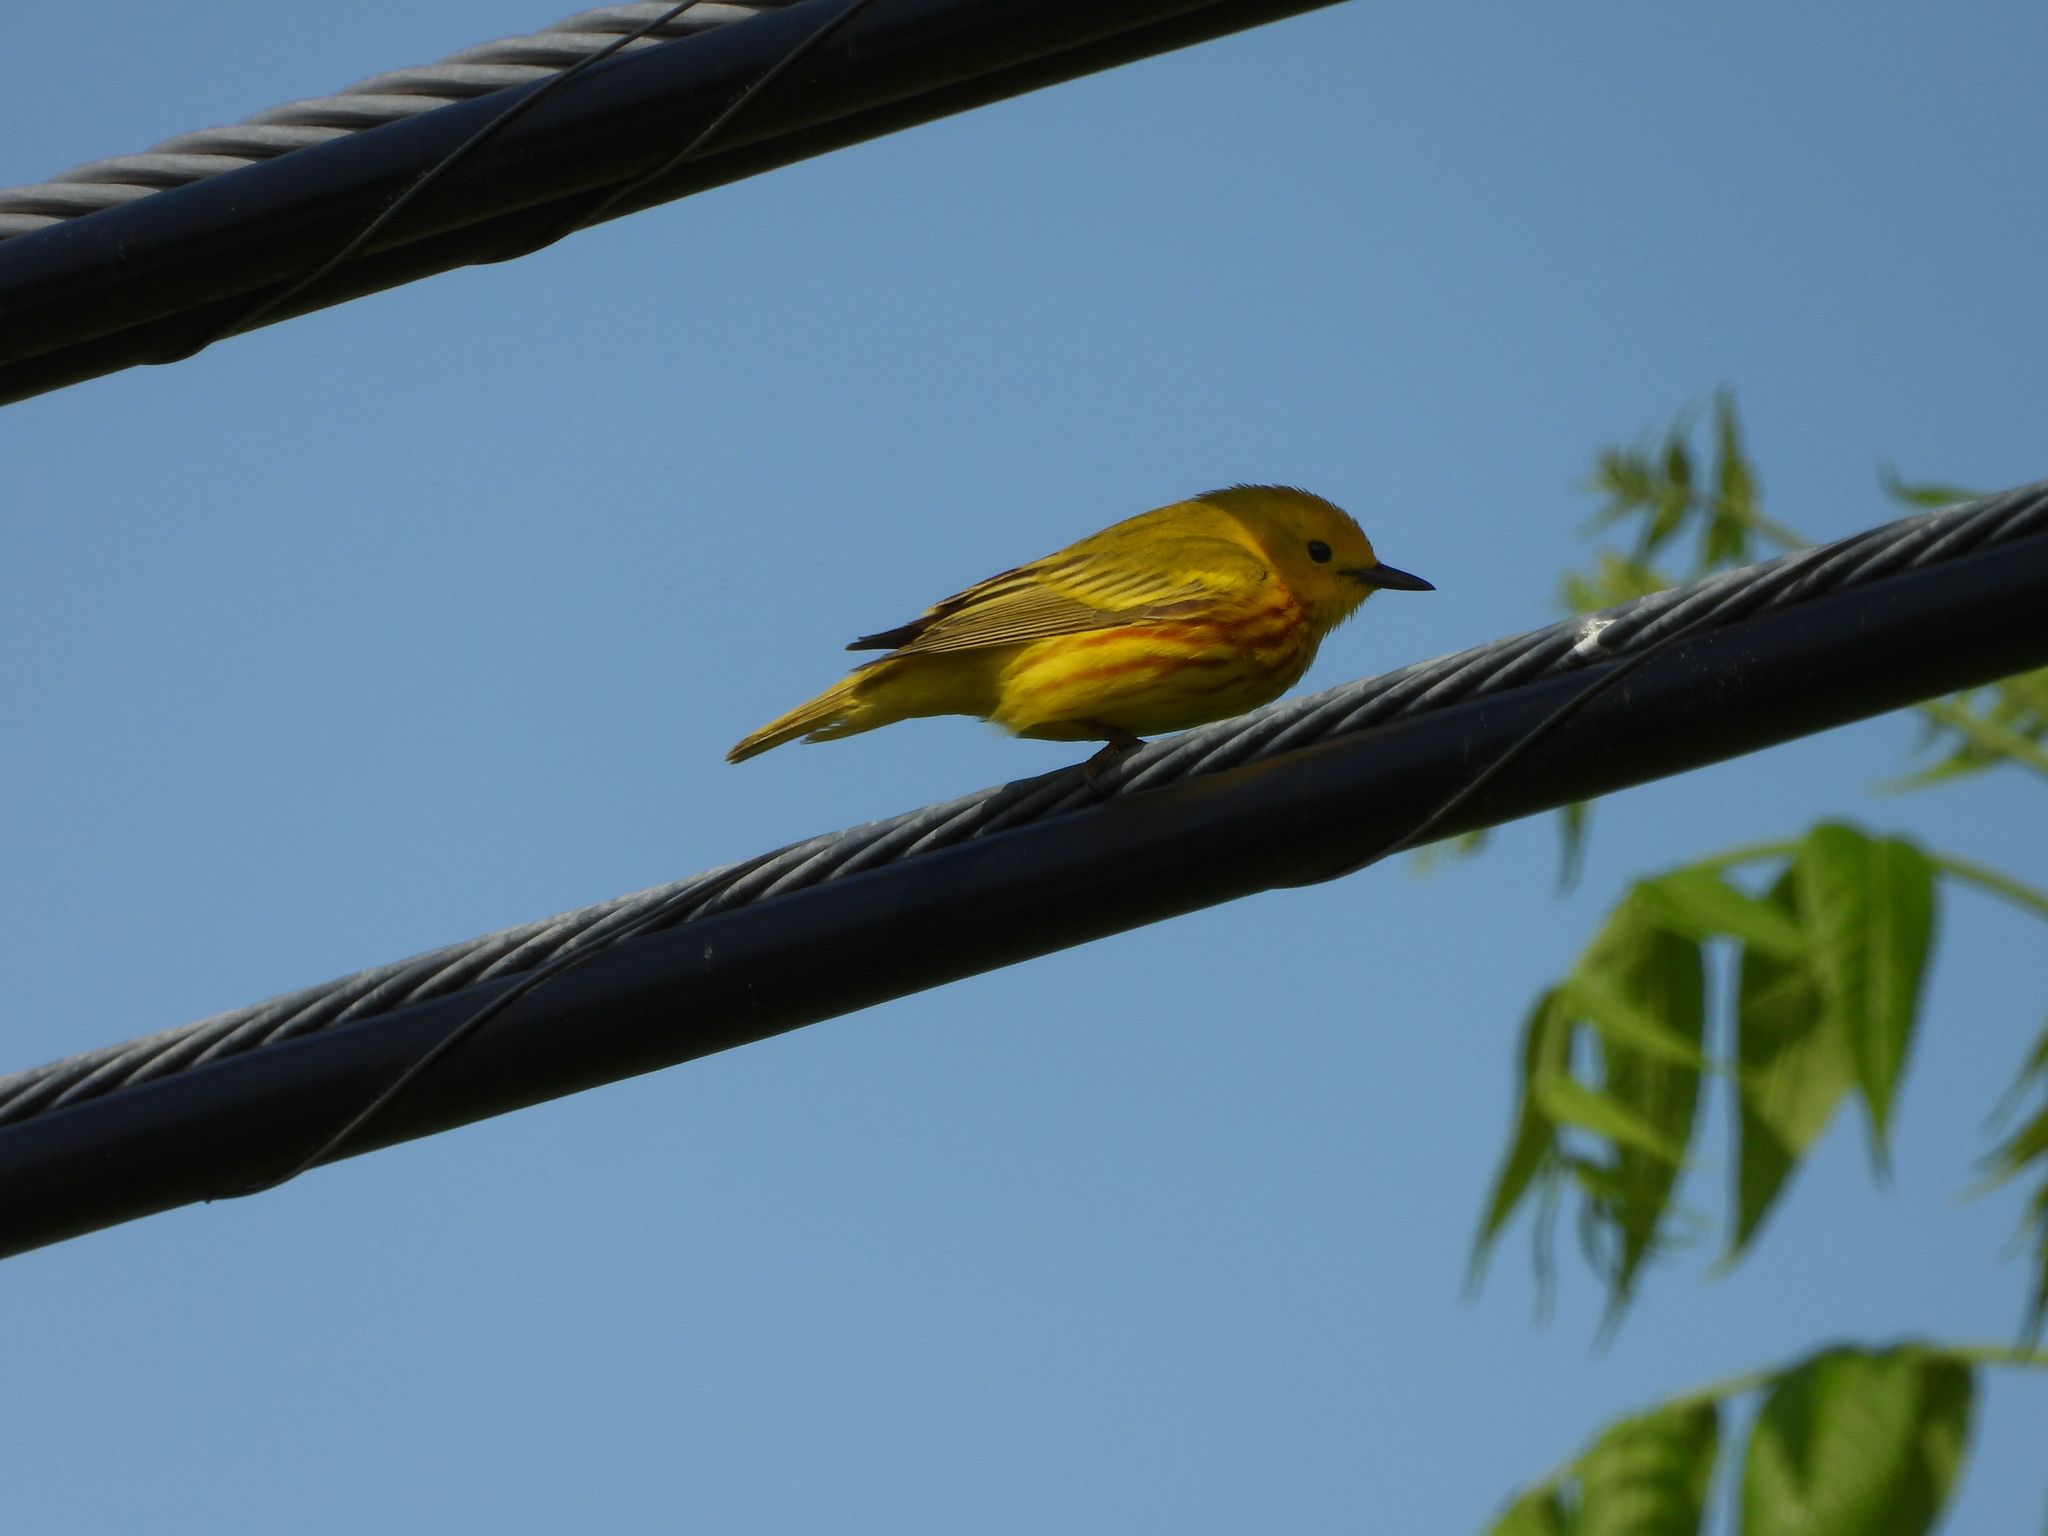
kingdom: Animalia
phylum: Chordata
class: Aves
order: Passeriformes
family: Parulidae
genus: Setophaga
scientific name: Setophaga petechia
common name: Yellow warbler
